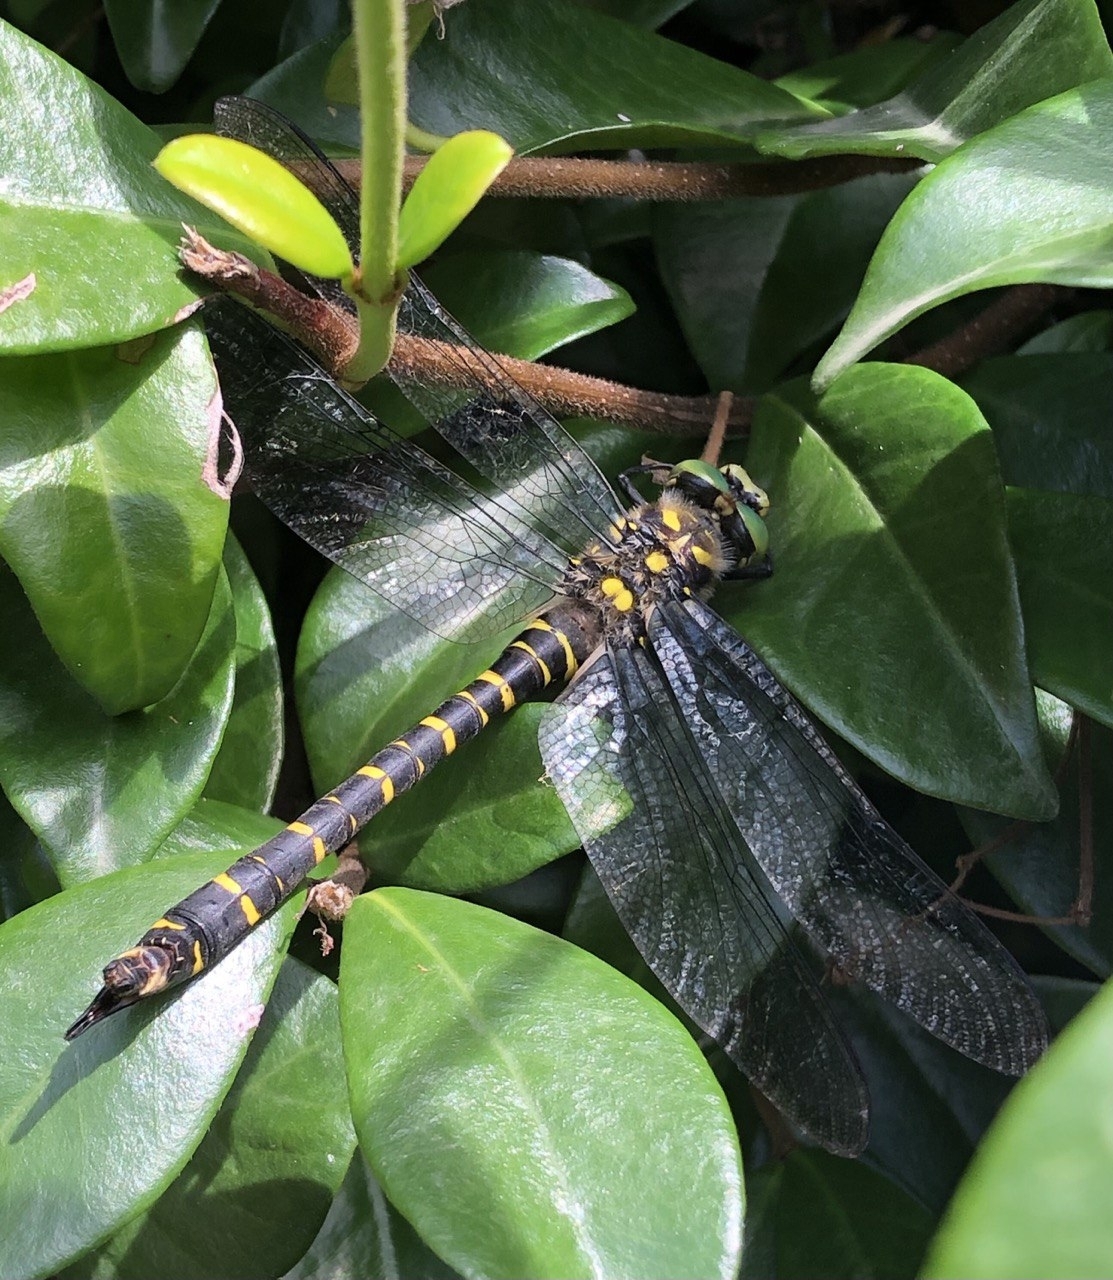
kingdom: Animalia
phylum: Arthropoda
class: Insecta
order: Odonata
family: Cordulegastridae
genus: Cordulegaster
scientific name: Cordulegaster boltonii
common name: Golden-ringed dragonfly
